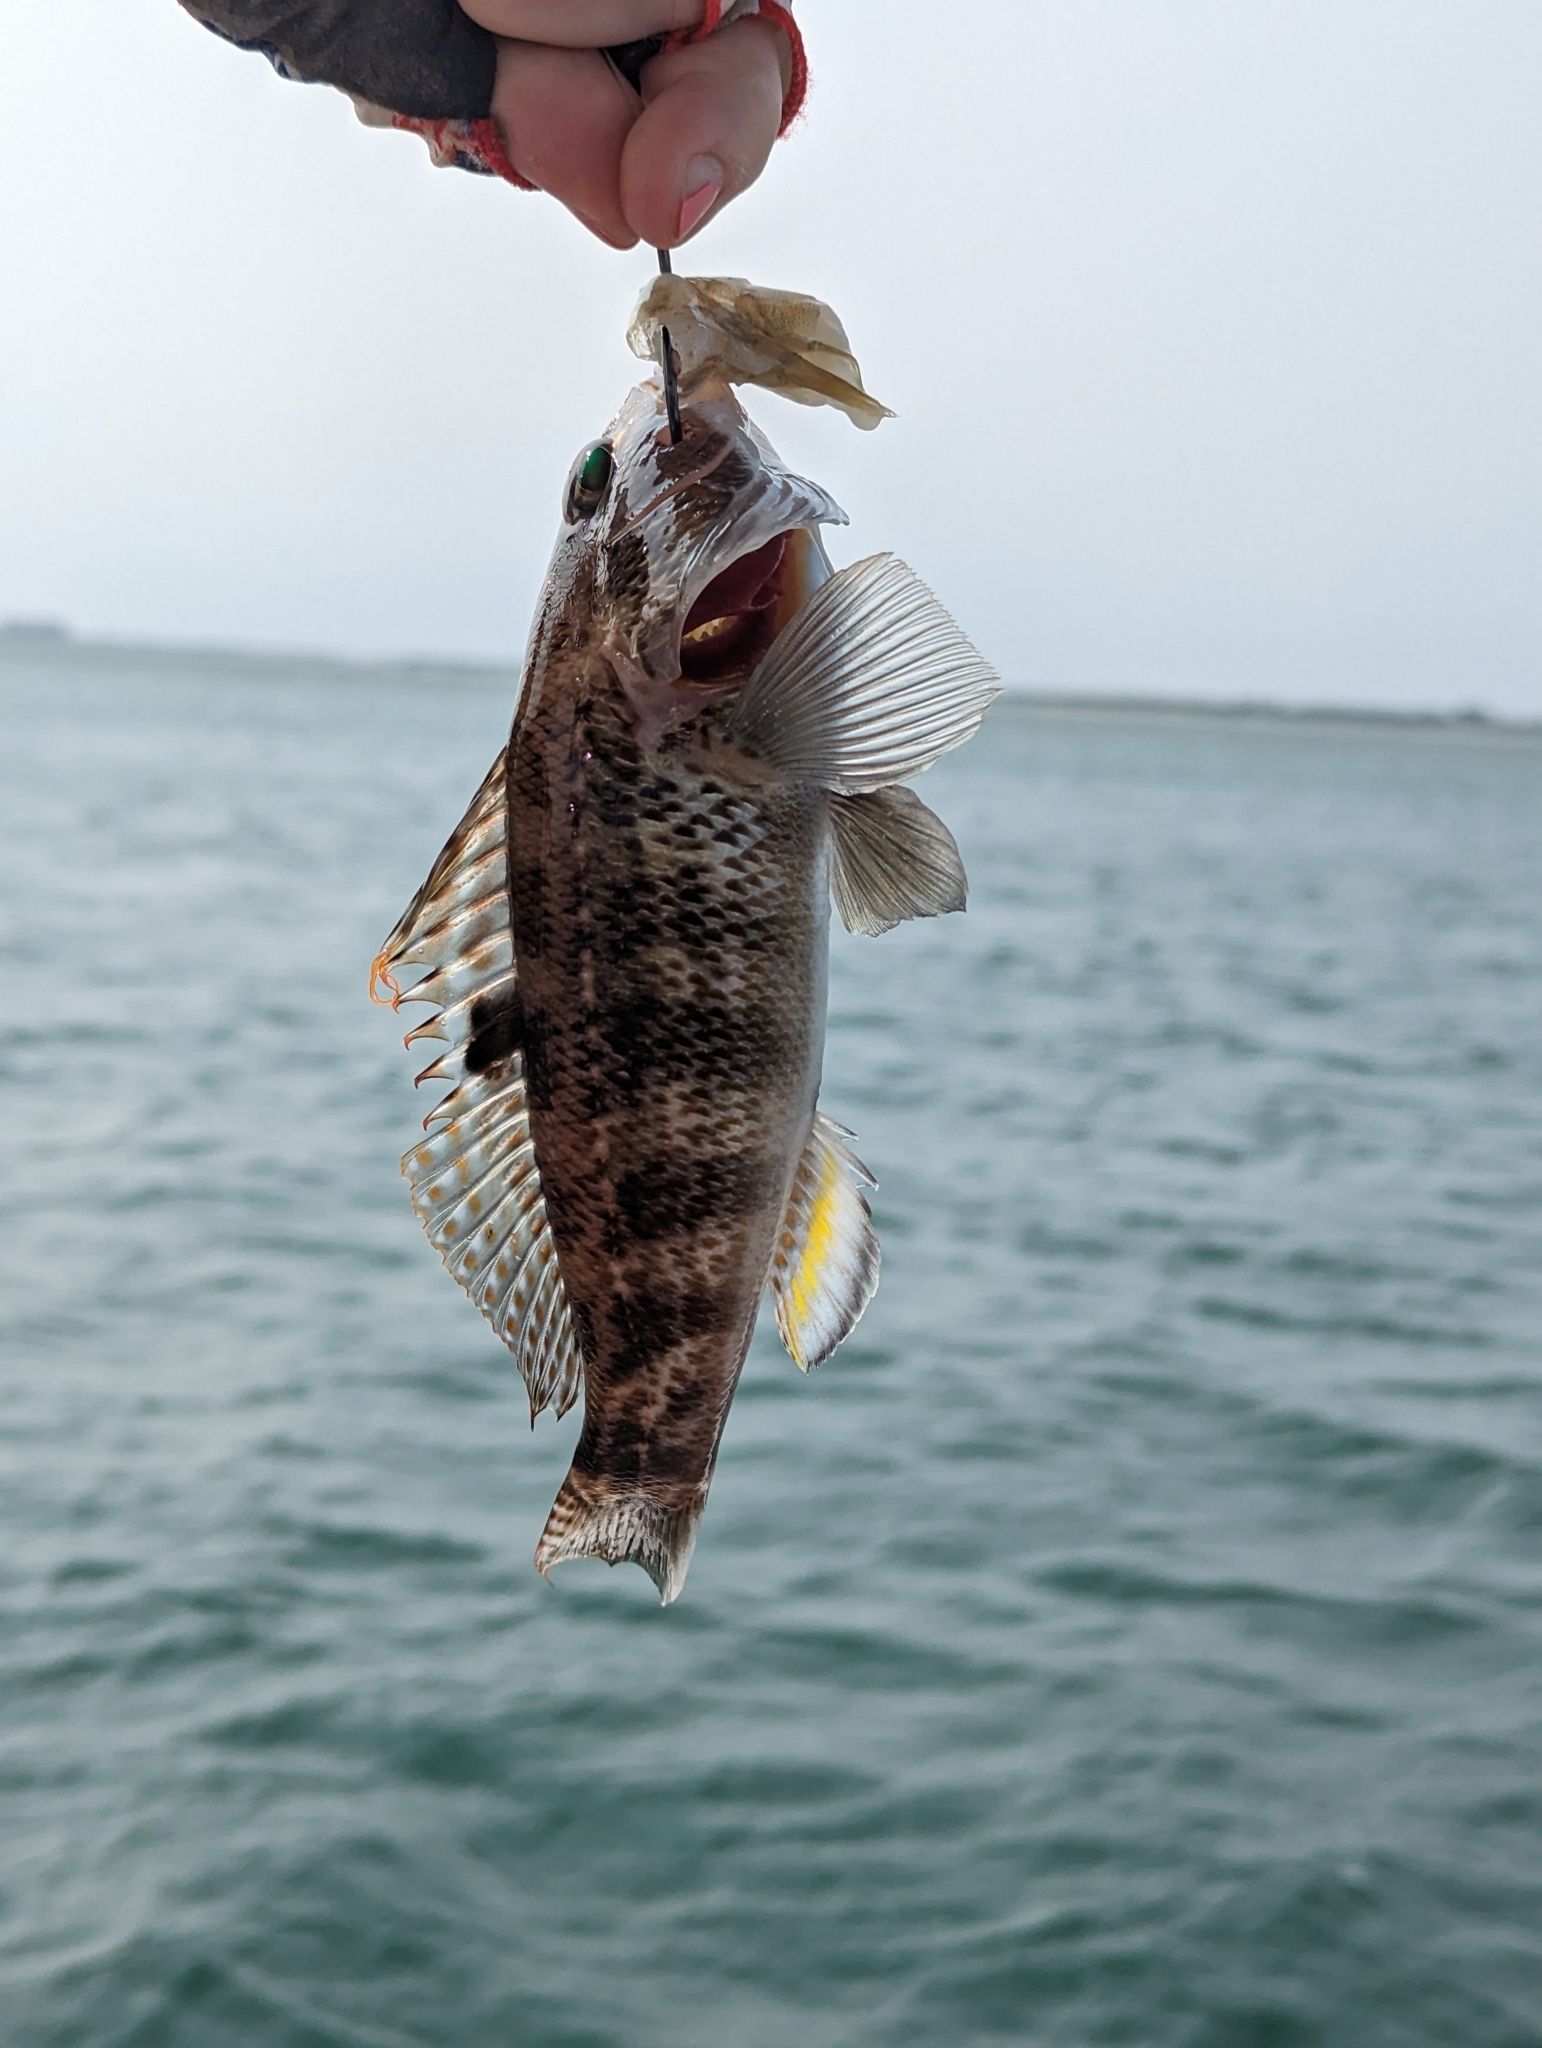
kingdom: Animalia
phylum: Chordata
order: Perciformes
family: Serranidae
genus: Centropristis
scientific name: Centropristis ocyurus
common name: Bank sea bass
